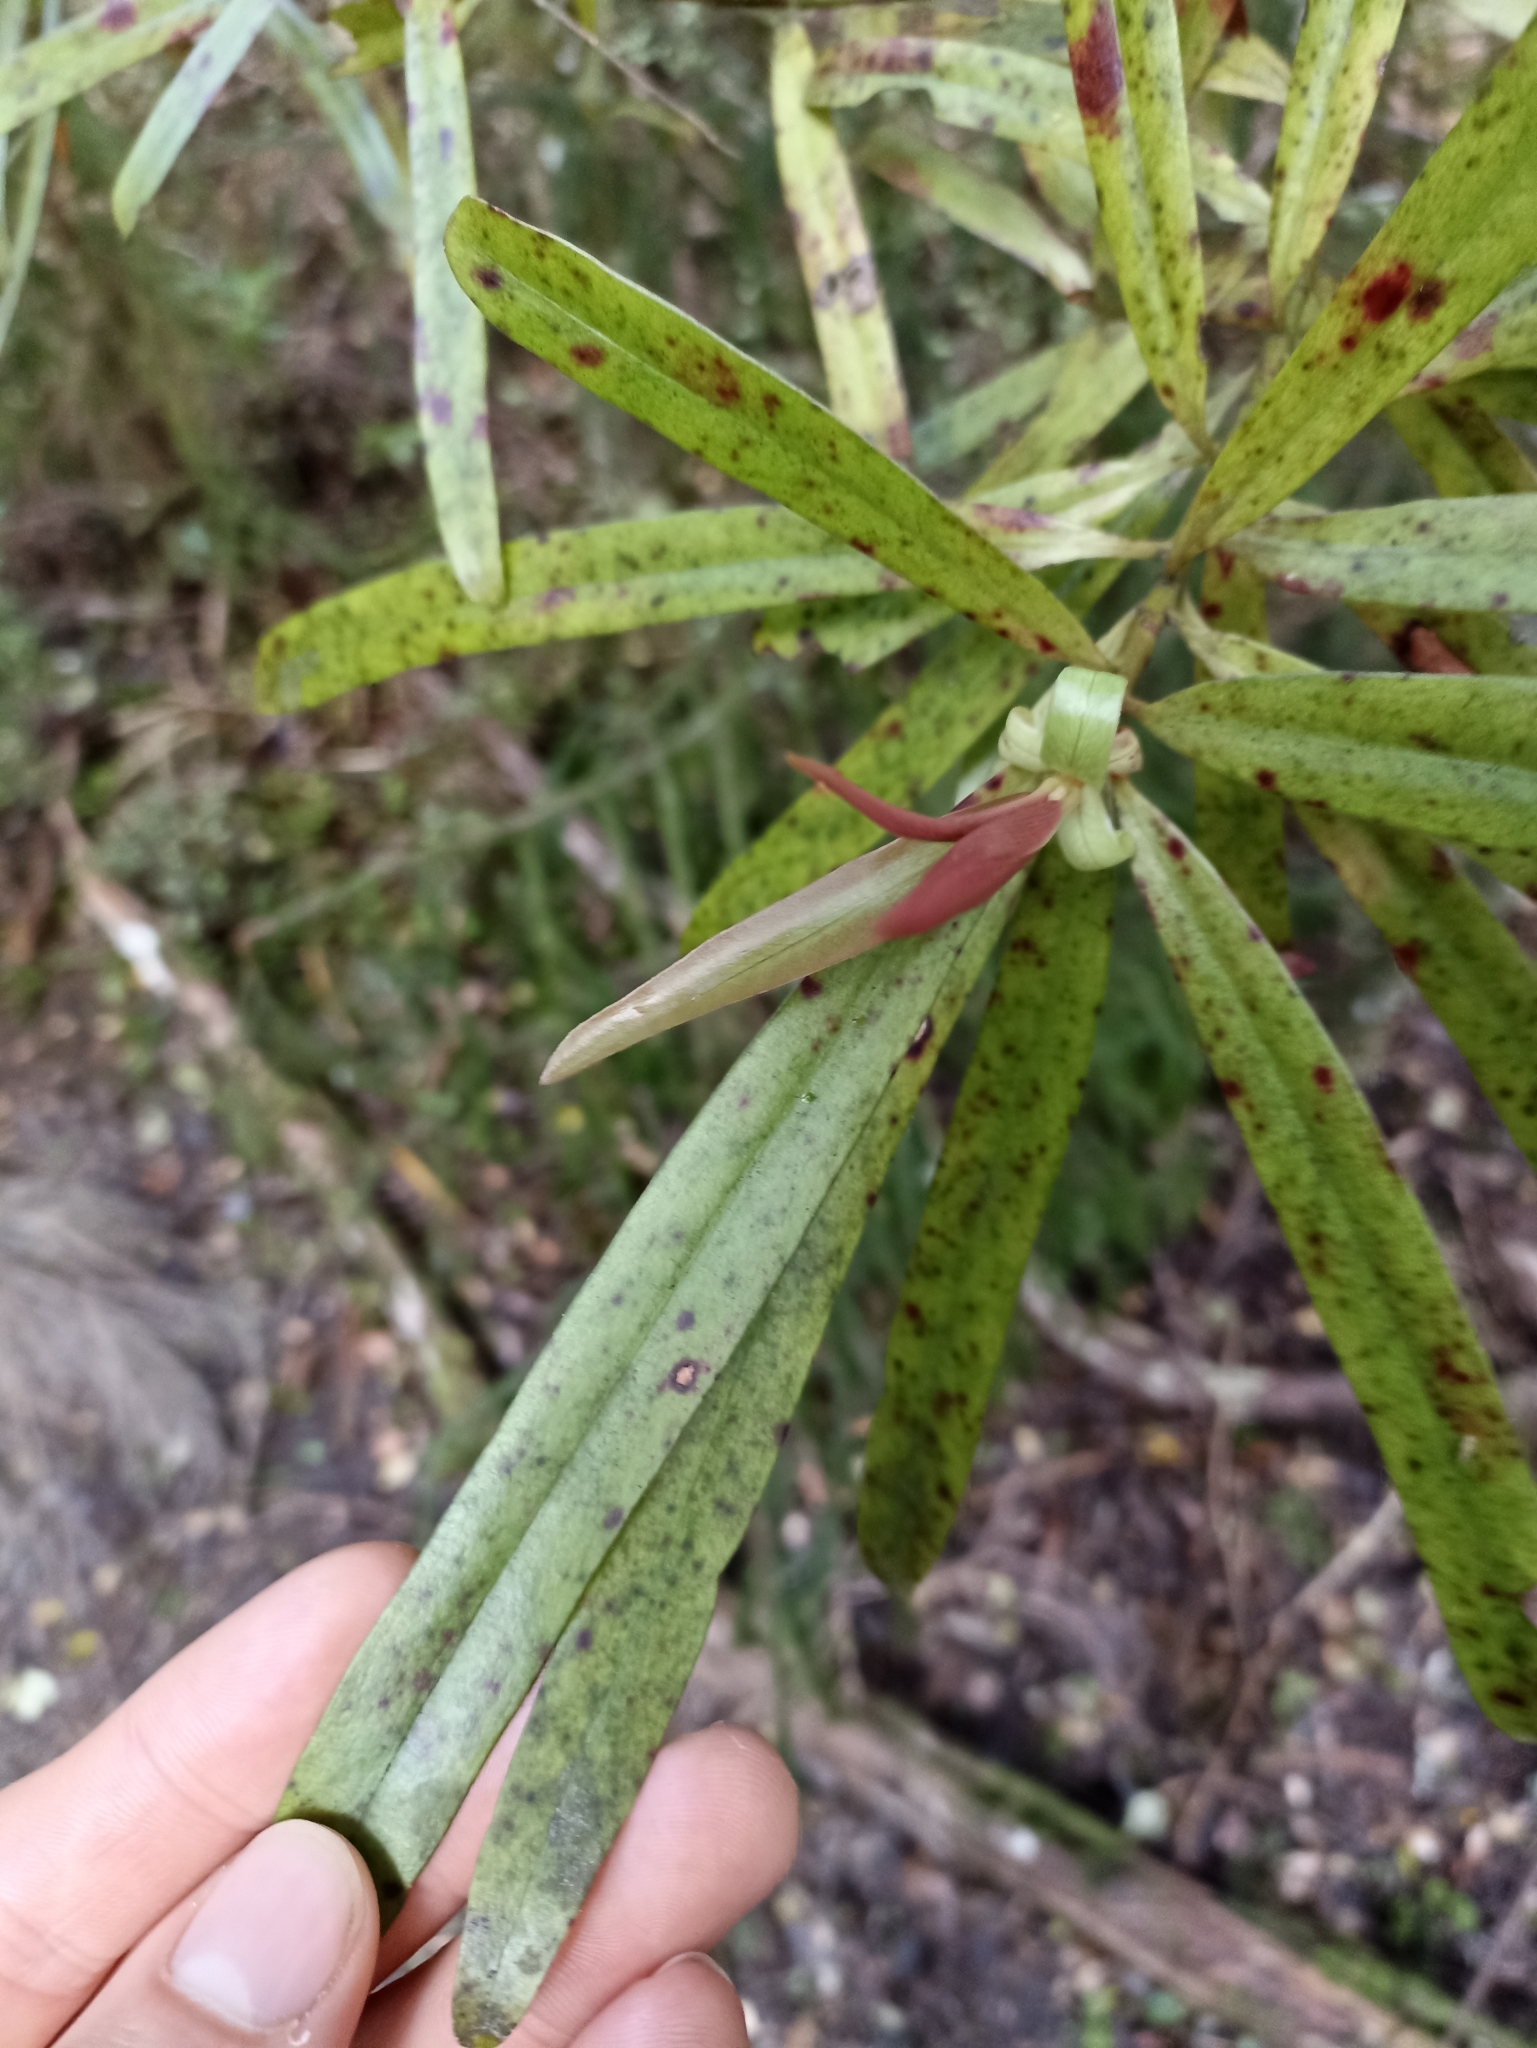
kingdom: Plantae
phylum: Tracheophyta
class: Magnoliopsida
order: Ericales
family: Primulaceae
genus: Myrsine
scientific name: Myrsine salicina
